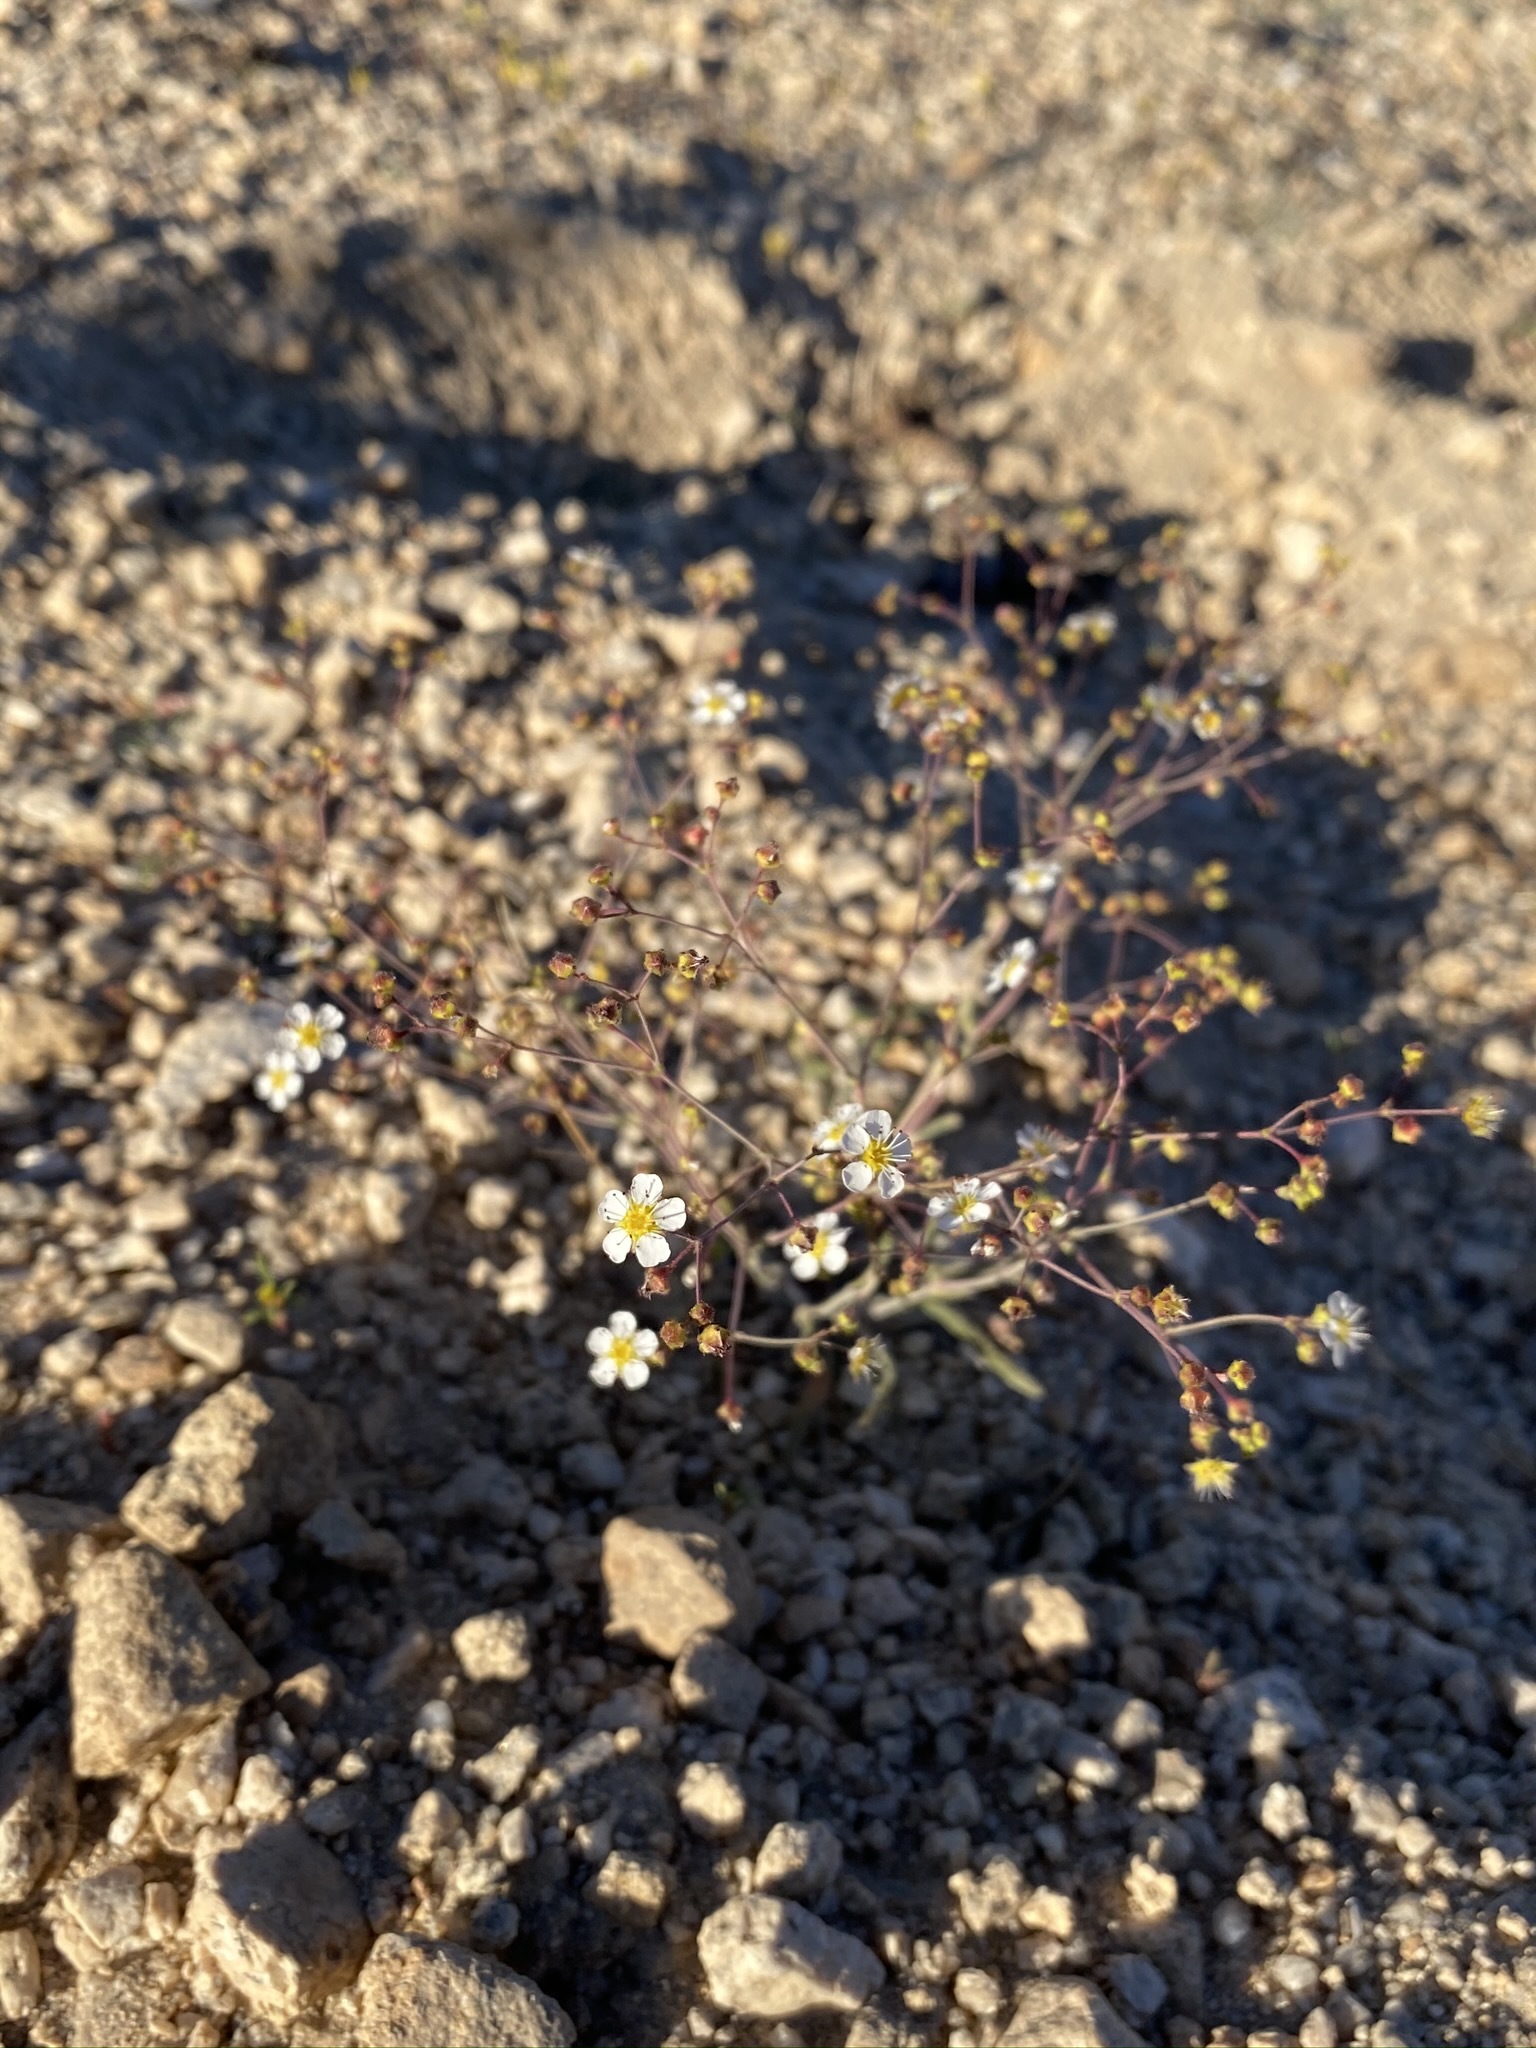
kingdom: Plantae
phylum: Tracheophyta
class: Magnoliopsida
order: Rosales
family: Rosaceae
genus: Potentilla
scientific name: Potentilla santolinoides
